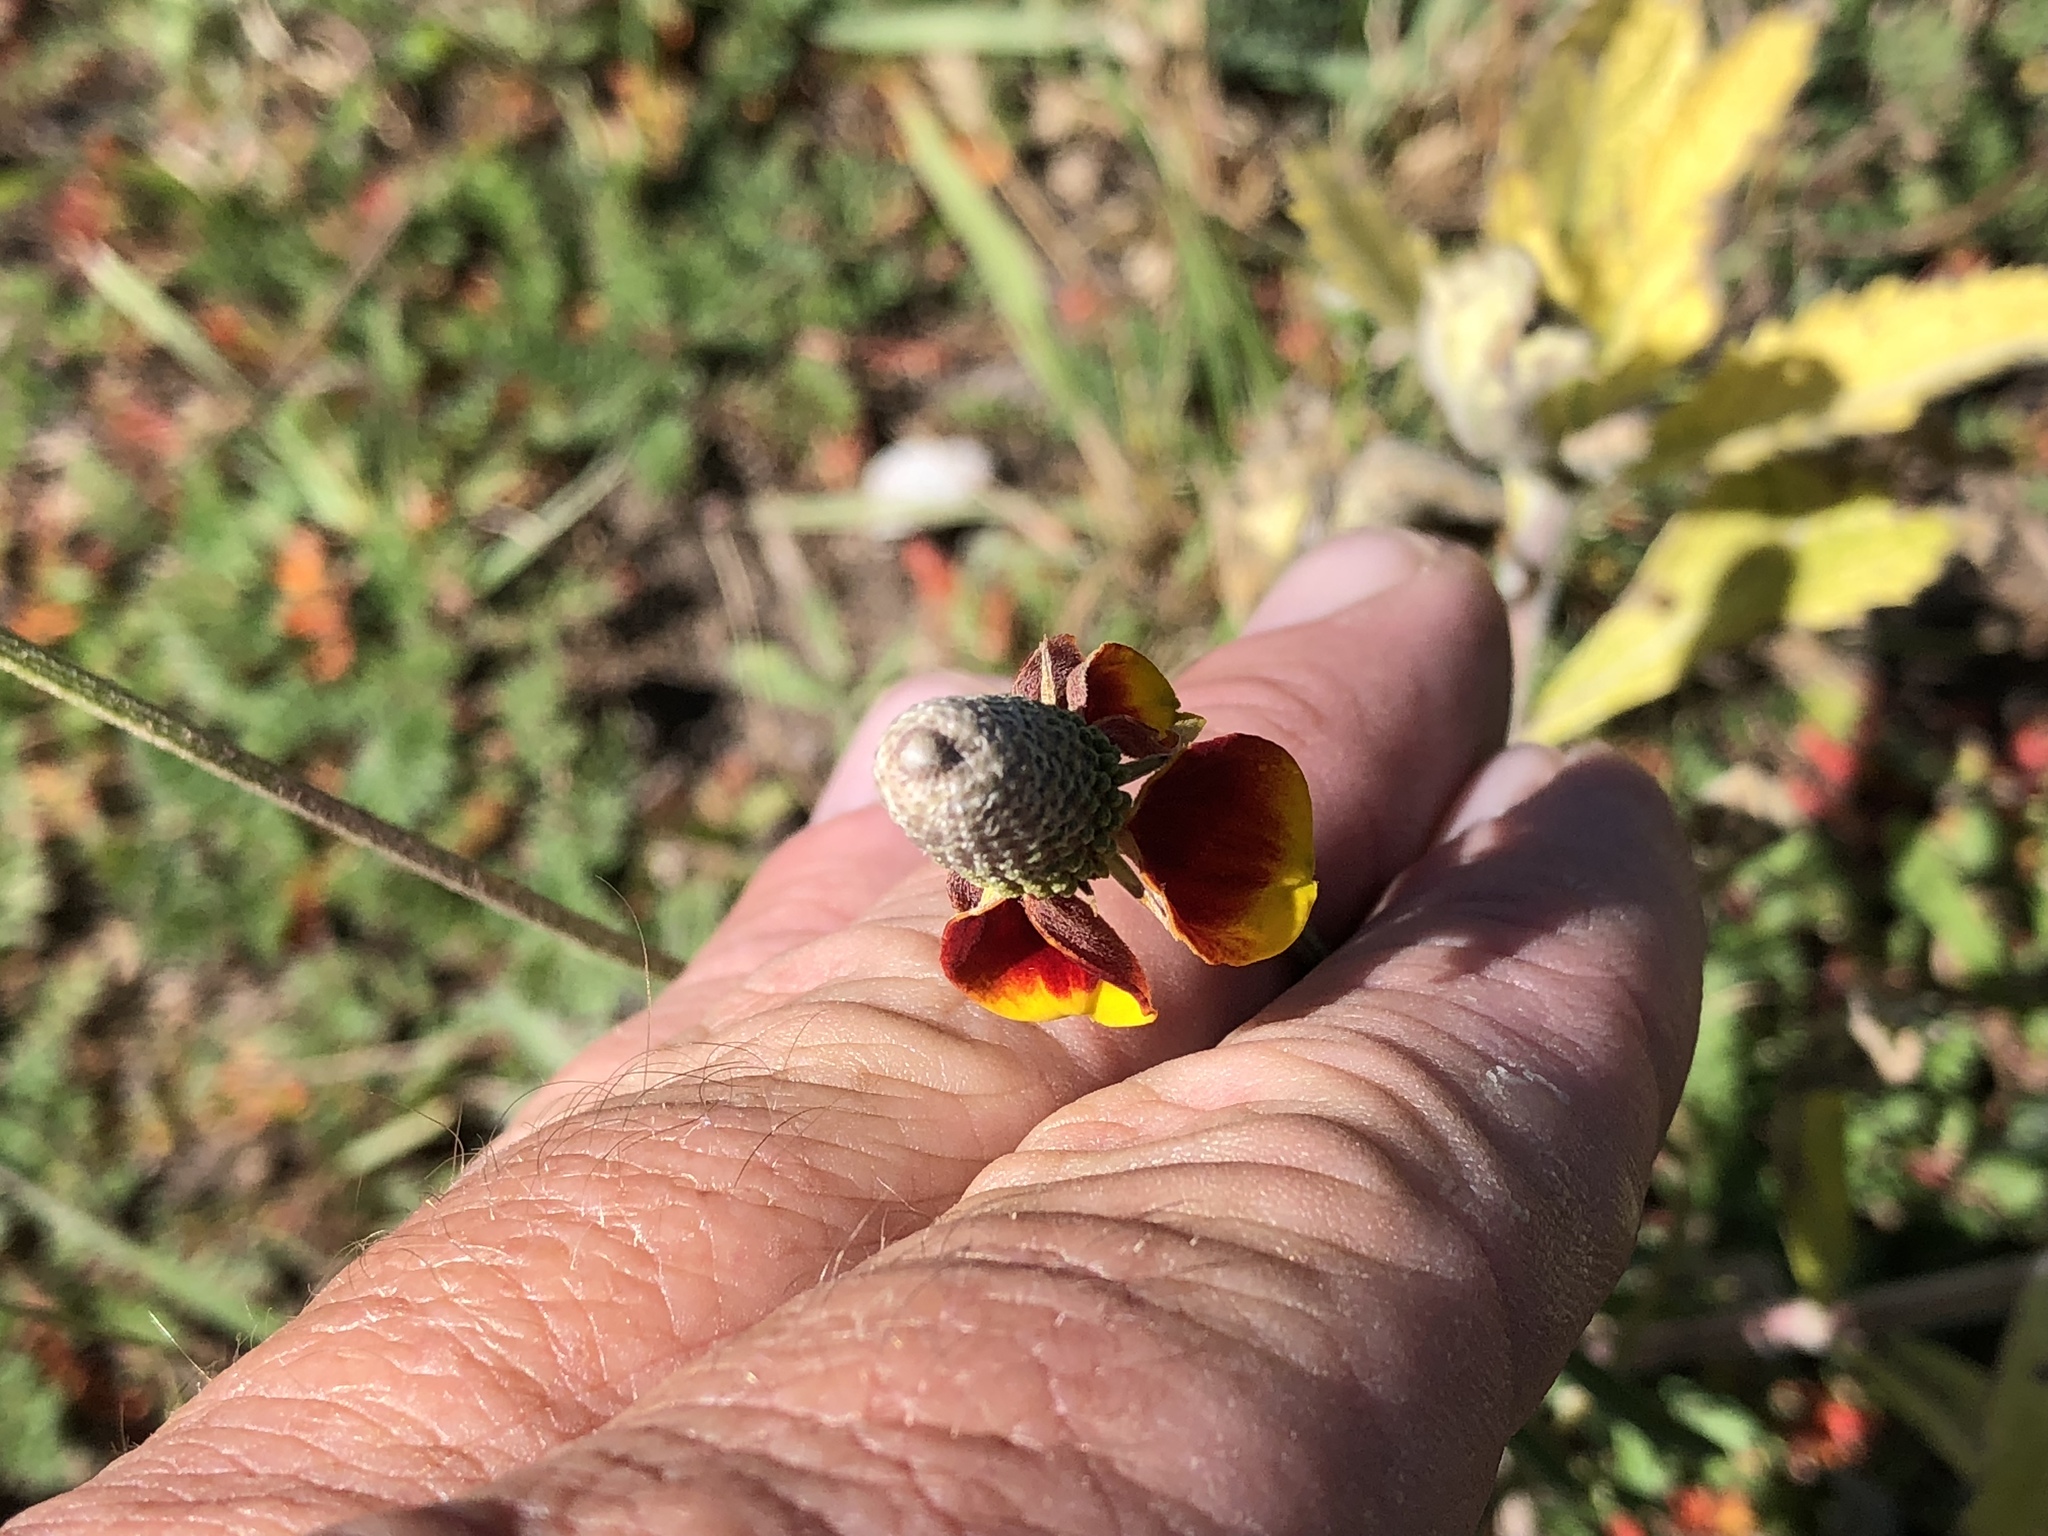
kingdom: Plantae
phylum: Tracheophyta
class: Magnoliopsida
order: Asterales
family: Asteraceae
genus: Ratibida
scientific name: Ratibida columnifera
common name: Prairie coneflower
